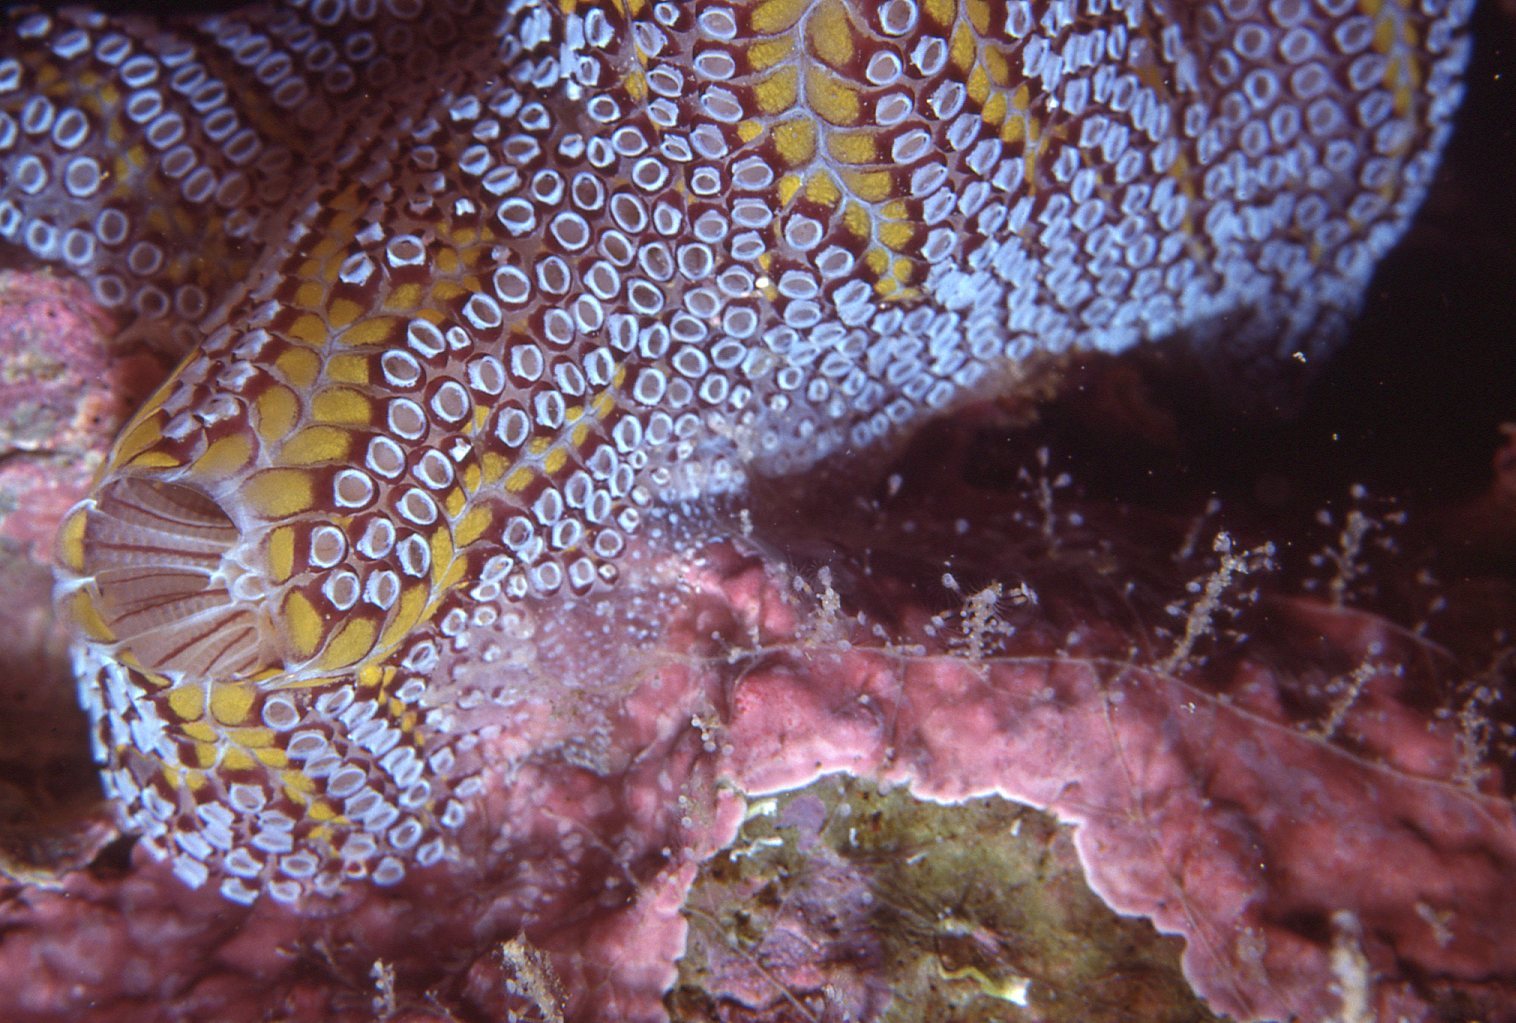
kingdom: Animalia
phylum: Chordata
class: Ascidiacea
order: Stolidobranchia
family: Styelidae
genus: Botrylloides
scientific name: Botrylloides magnicoecus
